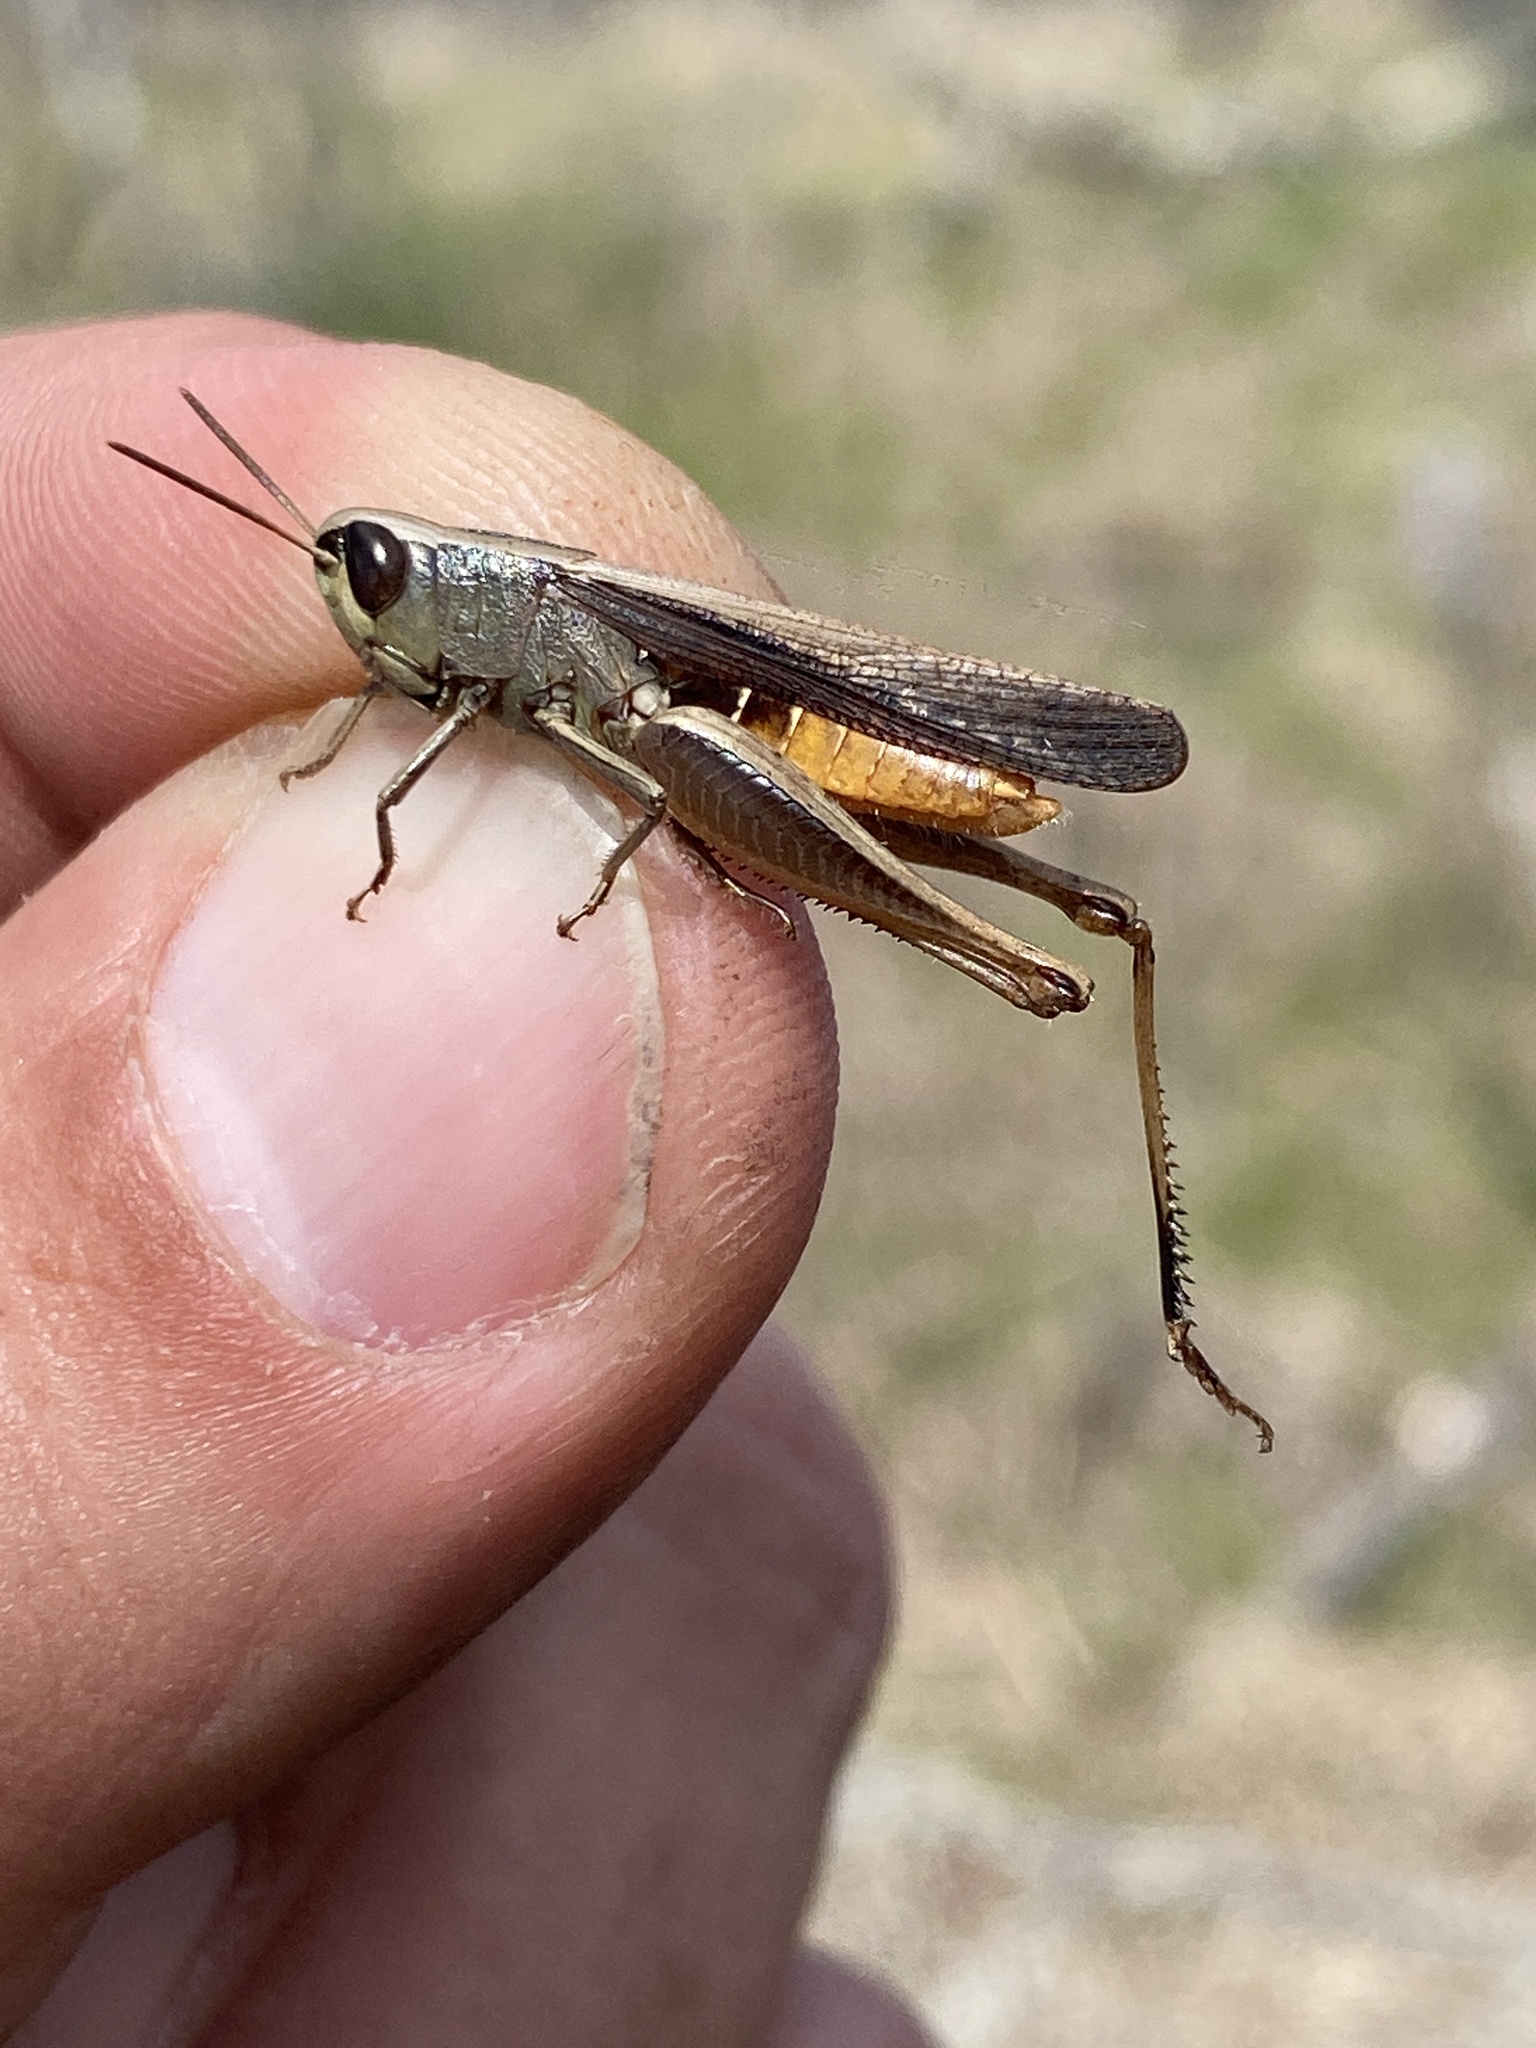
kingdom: Animalia
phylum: Arthropoda
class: Insecta
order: Orthoptera
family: Acrididae
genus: Amblytropidia
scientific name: Amblytropidia mysteca
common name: Brown winter grasshopper
